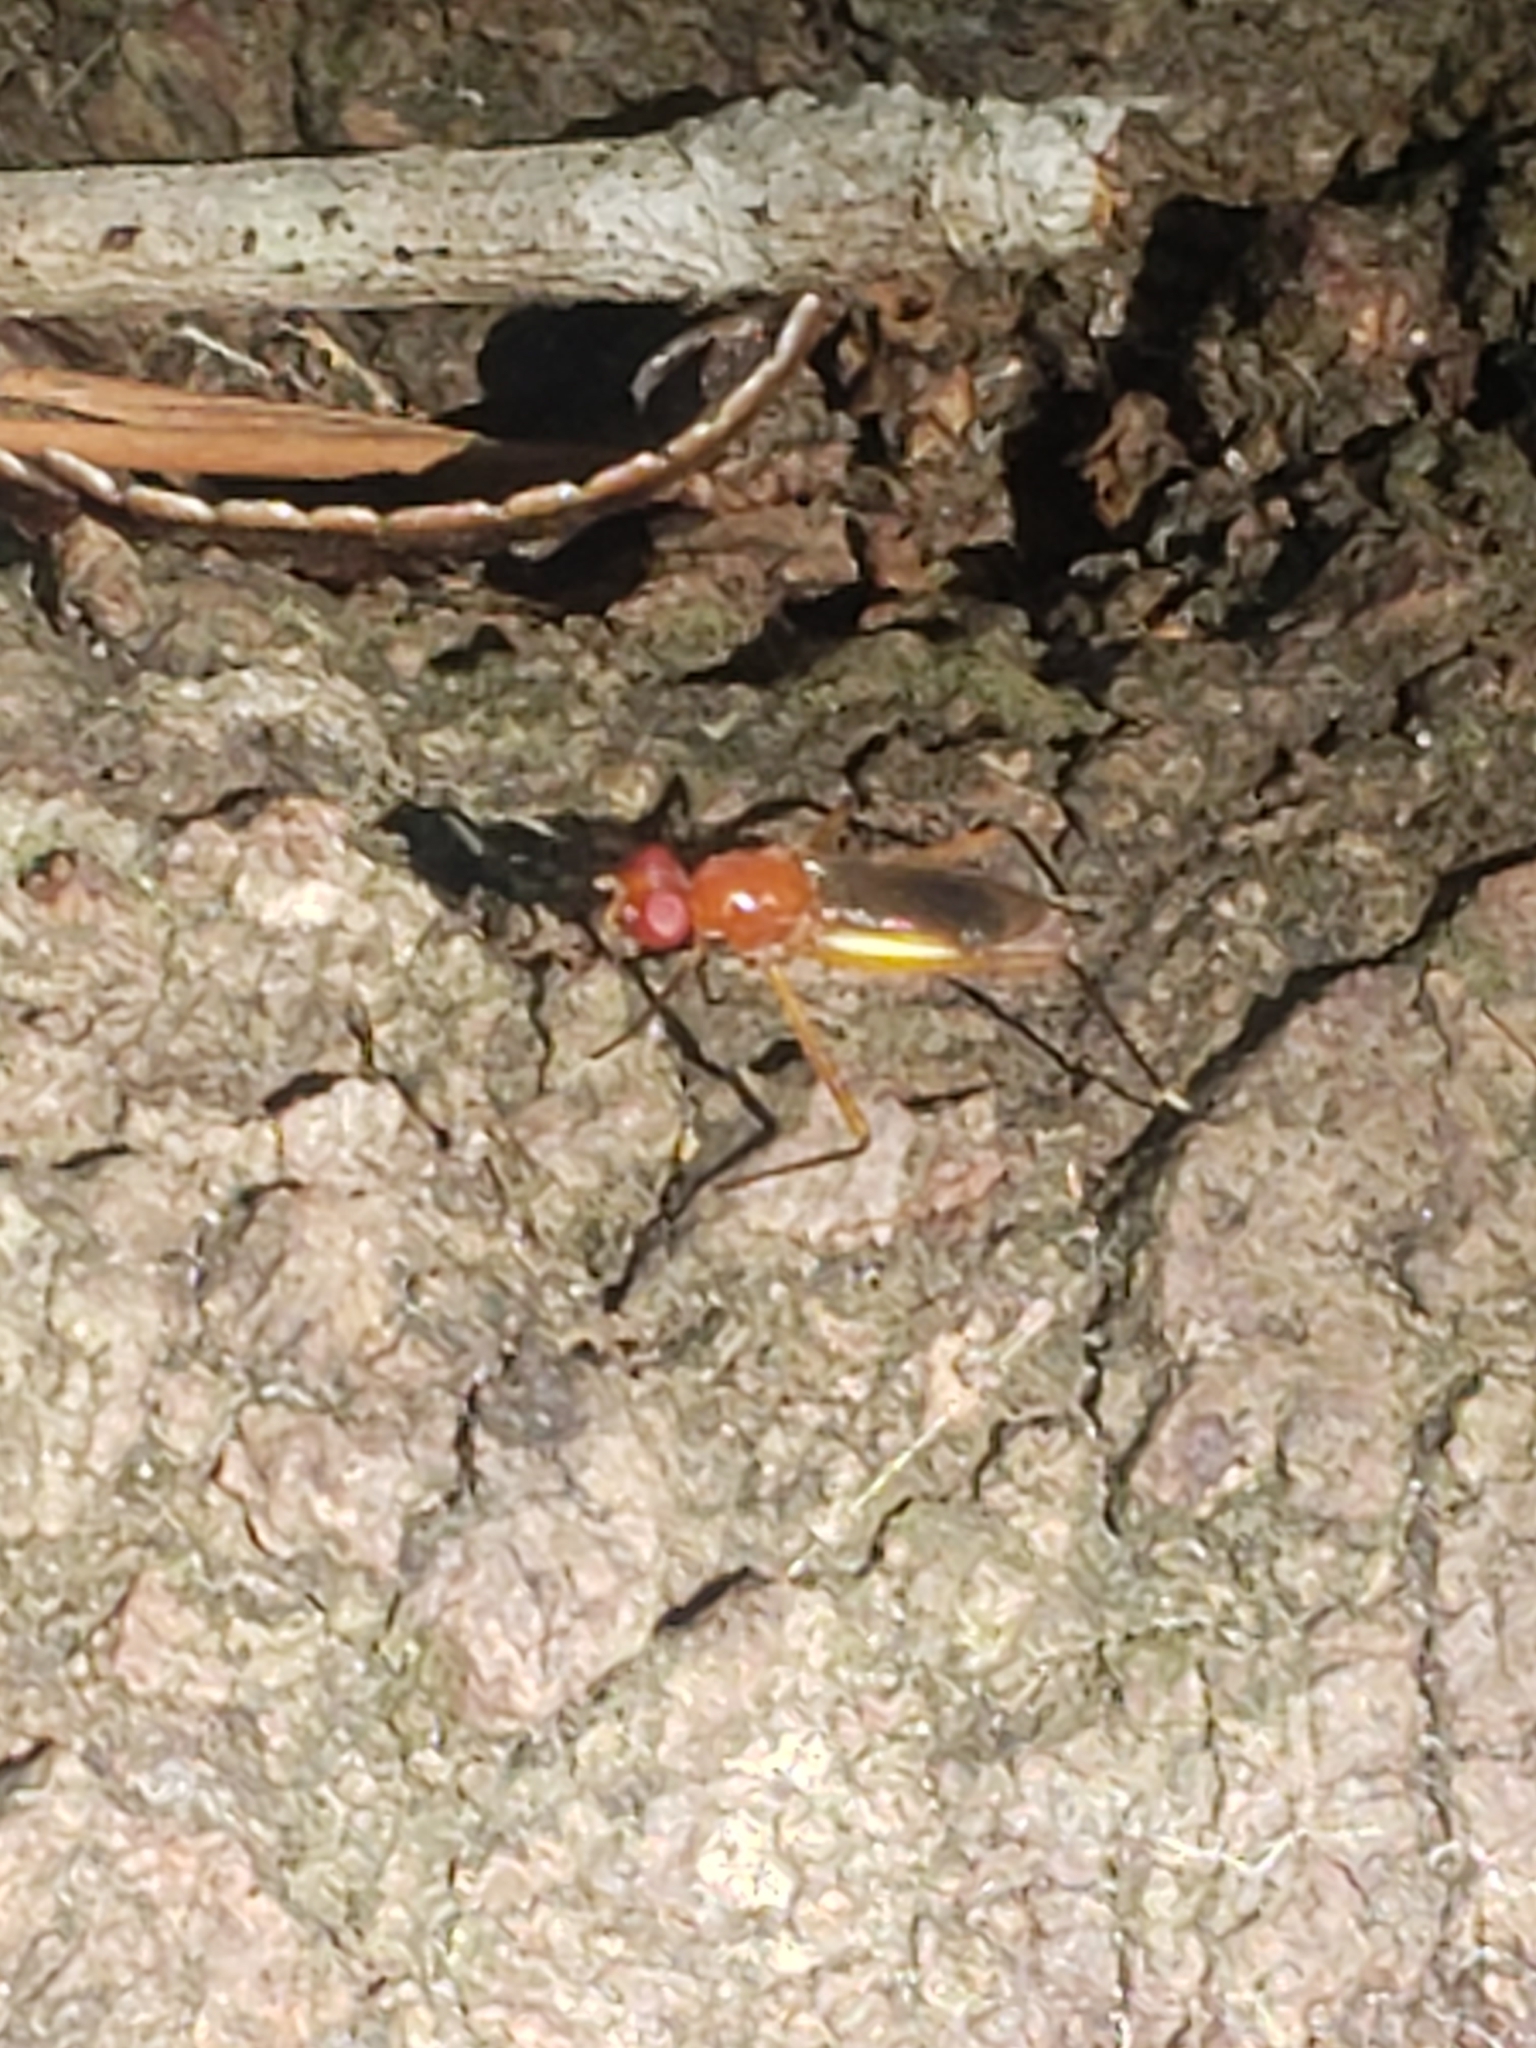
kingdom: Animalia
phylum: Arthropoda
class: Insecta
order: Diptera
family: Micropezidae
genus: Grallipeza
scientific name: Grallipeza nebulosa
